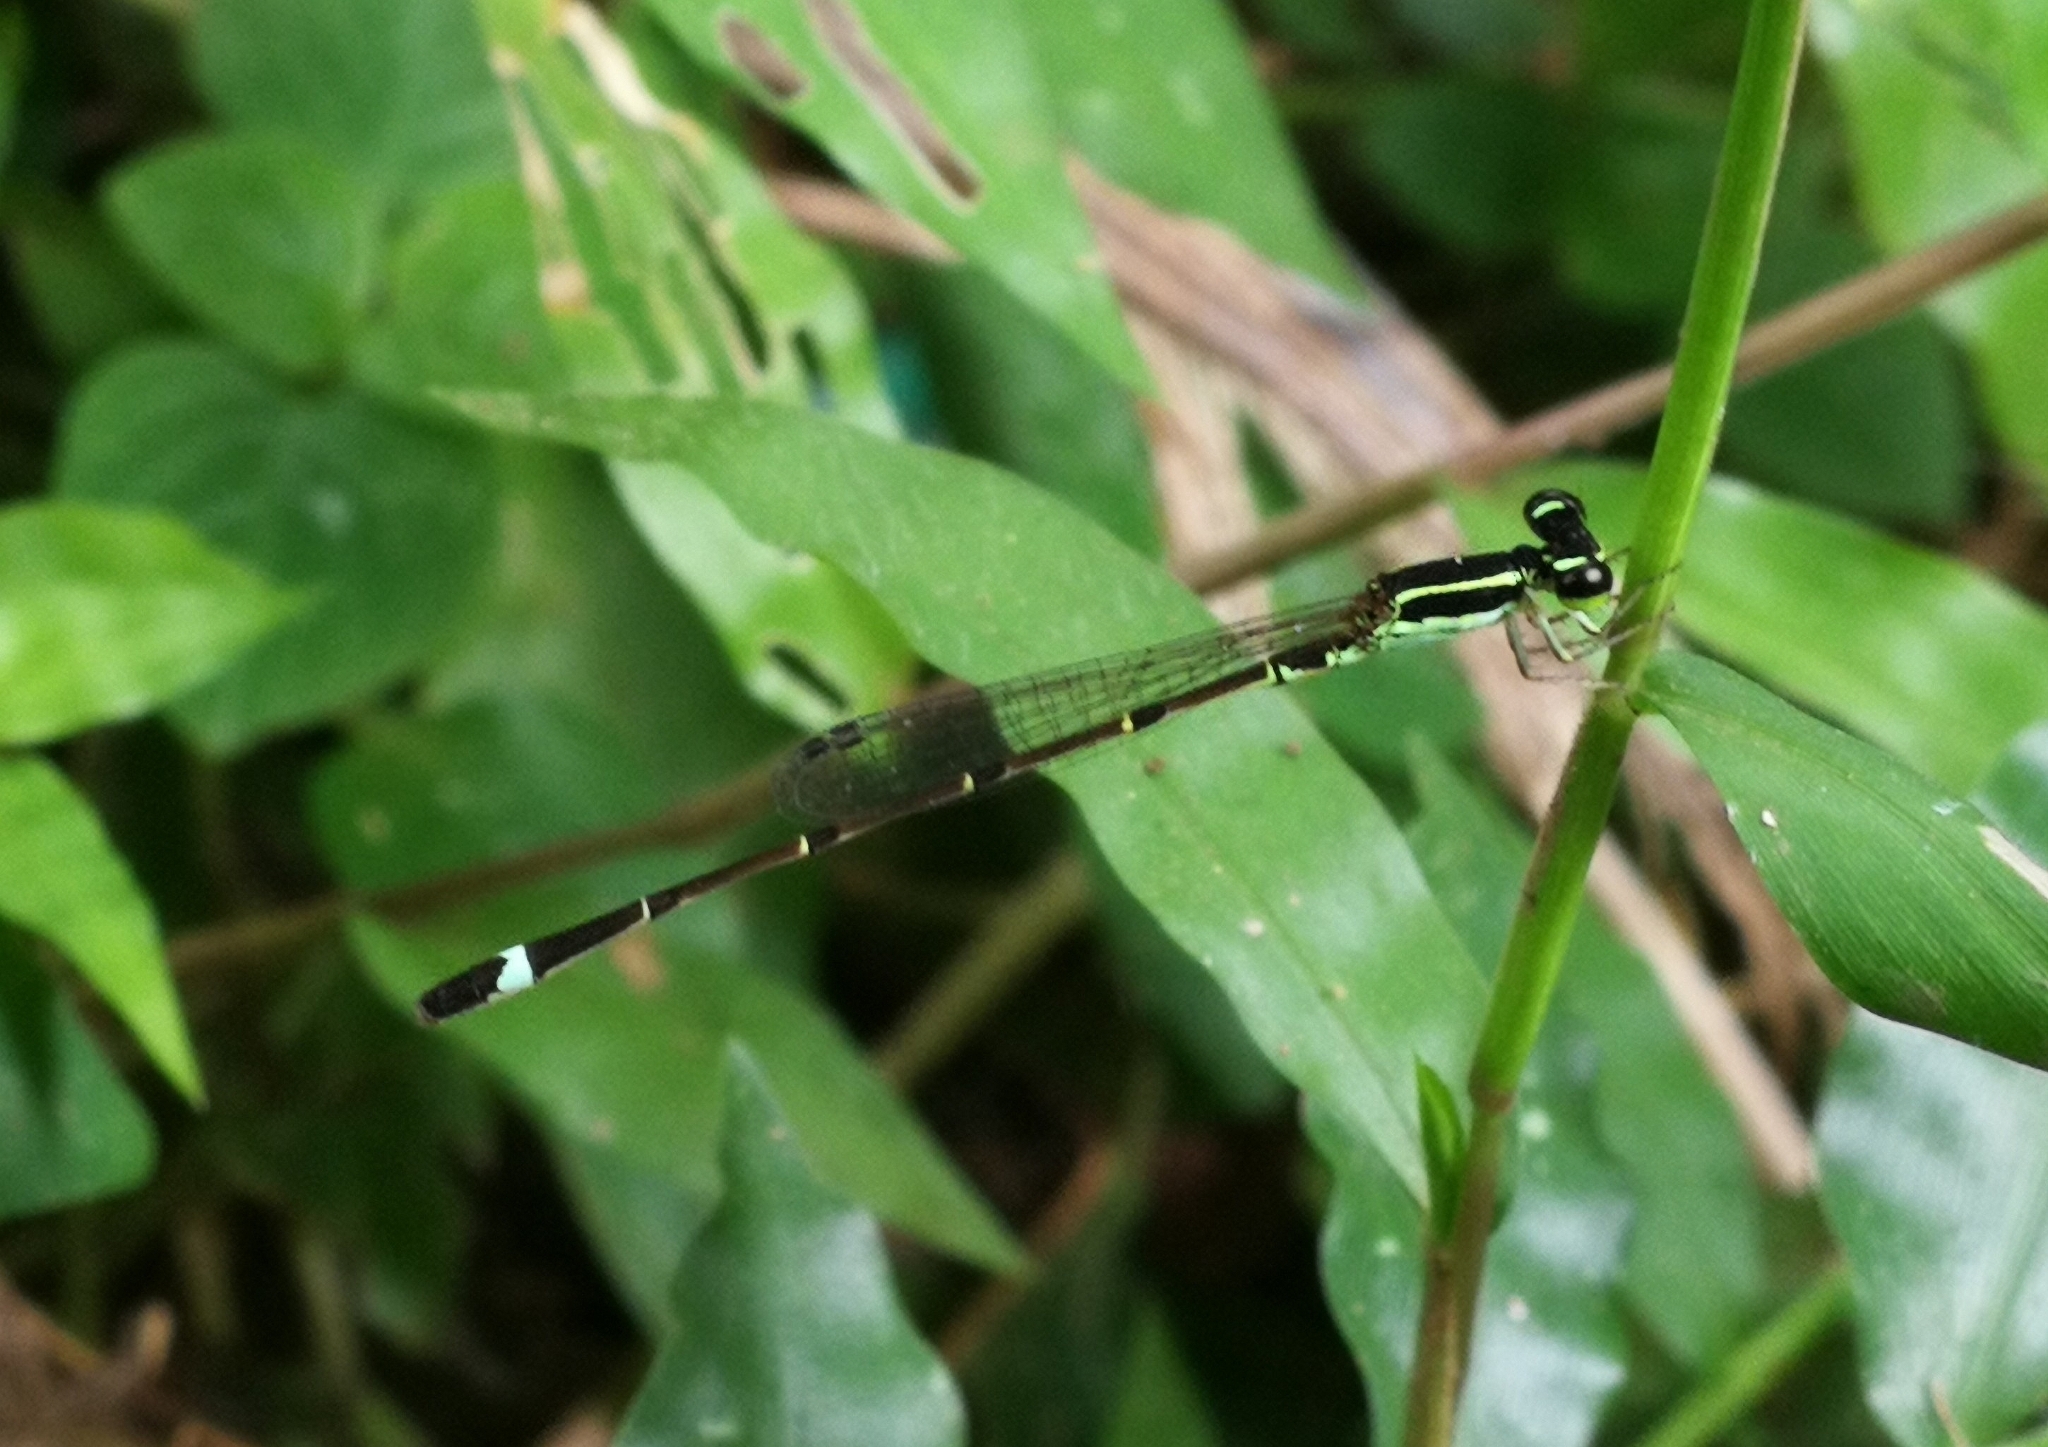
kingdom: Animalia
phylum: Arthropoda
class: Insecta
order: Odonata
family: Coenagrionidae
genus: Mortonagrion
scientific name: Mortonagrion varralli
